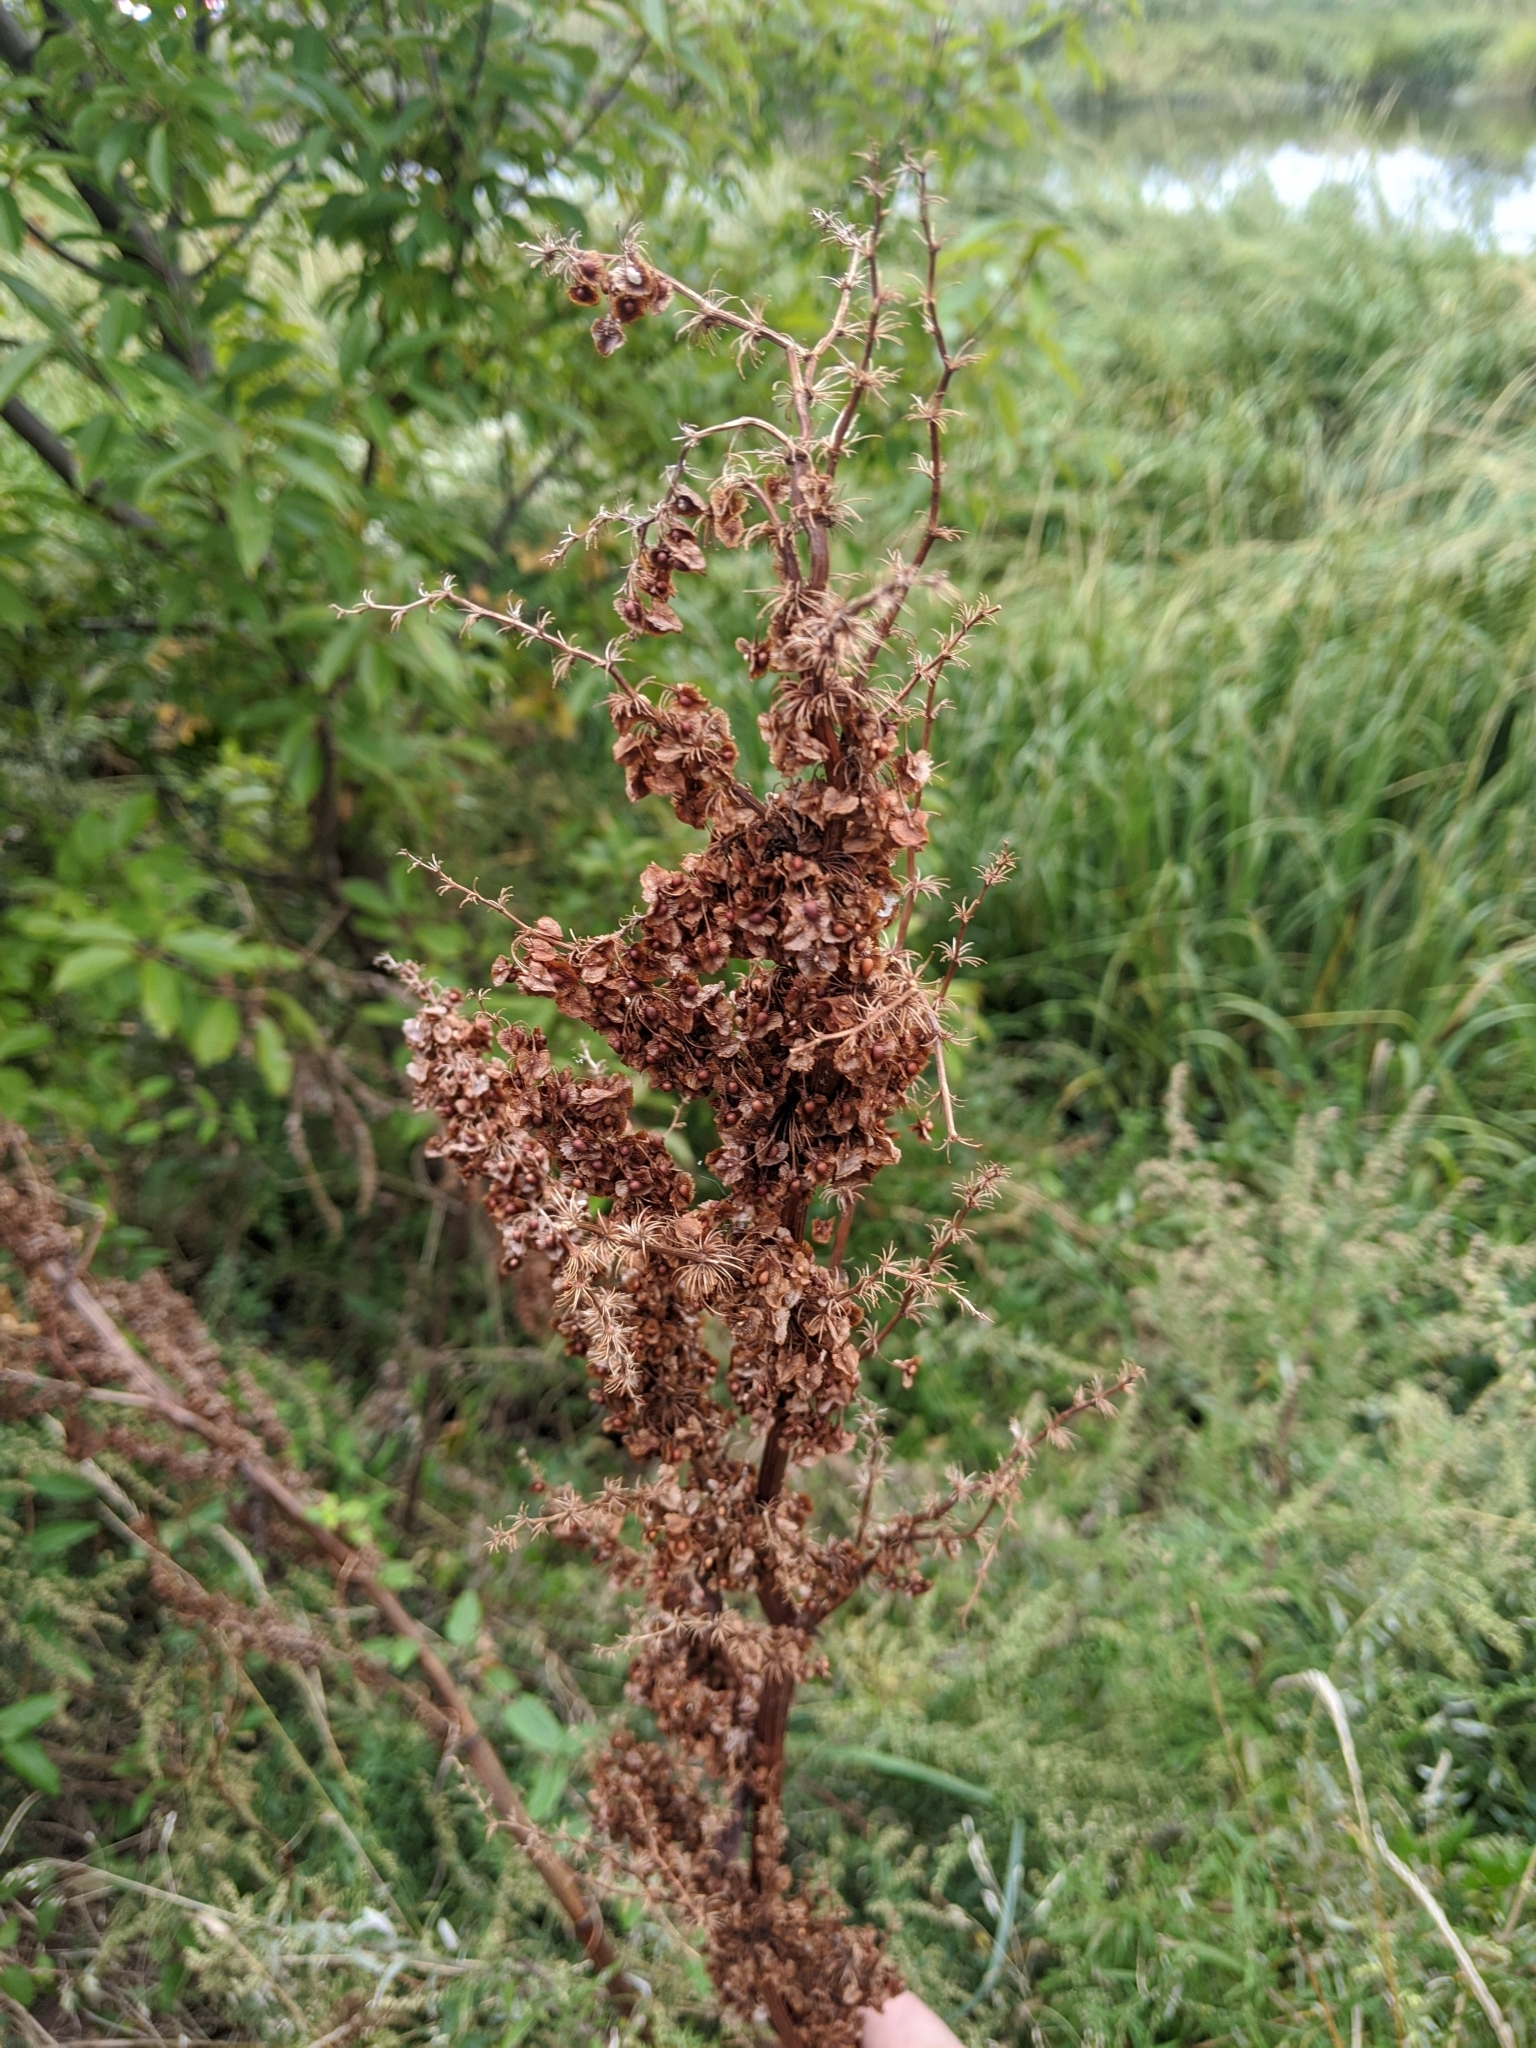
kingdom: Plantae
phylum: Tracheophyta
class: Magnoliopsida
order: Caryophyllales
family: Polygonaceae
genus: Rumex
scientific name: Rumex crispus
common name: Curled dock
